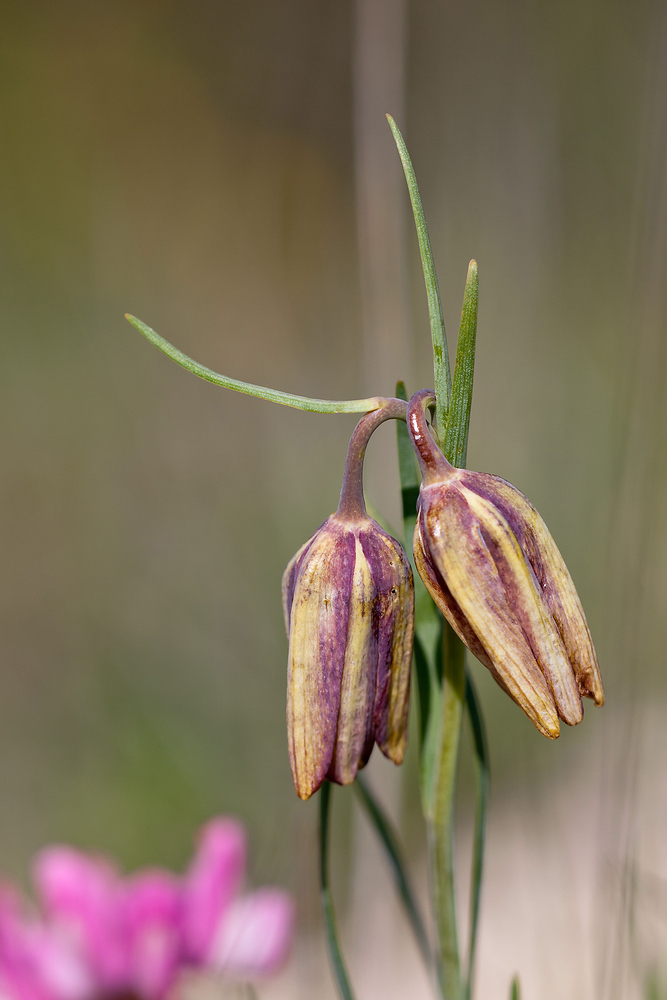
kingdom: Plantae
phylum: Tracheophyta
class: Liliopsida
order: Liliales
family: Liliaceae
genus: Fritillaria
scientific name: Fritillaria lusitanica
